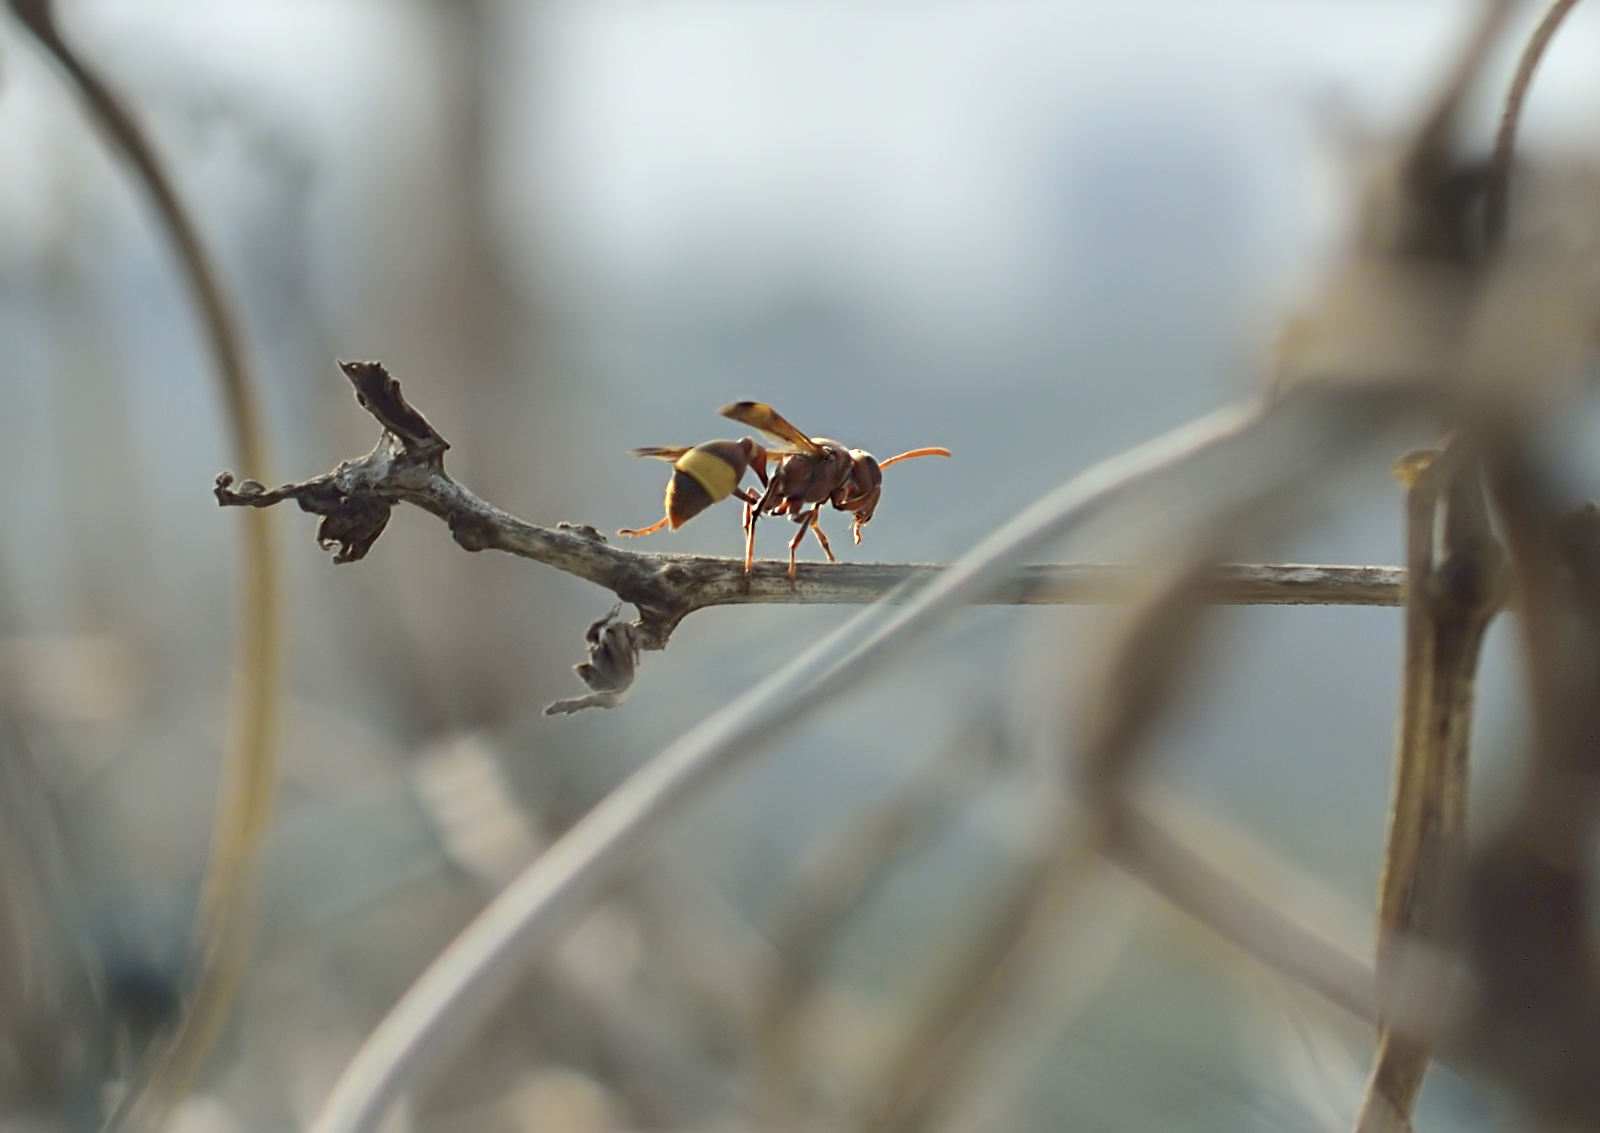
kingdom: Animalia
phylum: Arthropoda
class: Insecta
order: Hymenoptera
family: Vespidae
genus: Ropalidia
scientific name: Ropalidia
